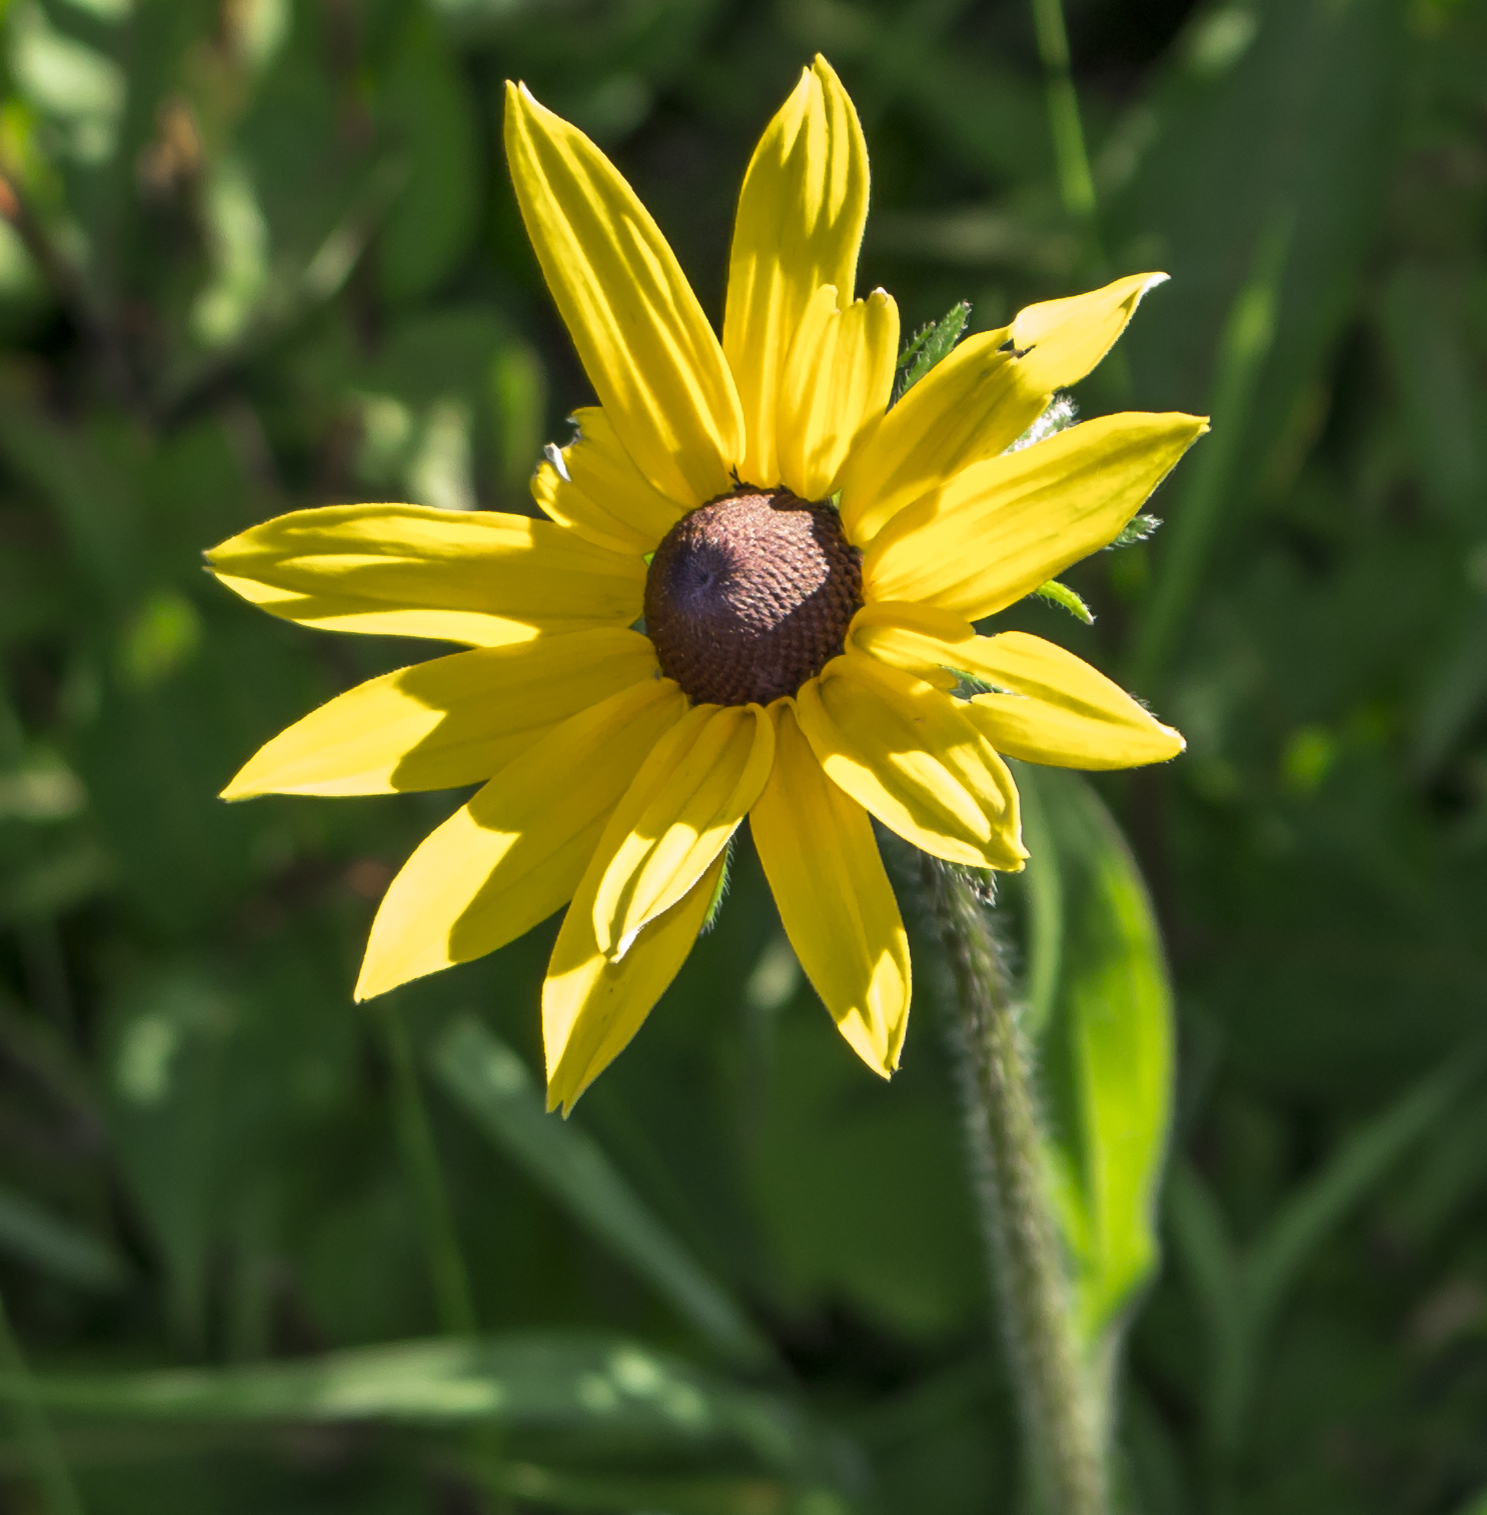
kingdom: Plantae
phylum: Tracheophyta
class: Magnoliopsida
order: Asterales
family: Asteraceae
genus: Rudbeckia
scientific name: Rudbeckia hirta
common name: Black-eyed-susan
